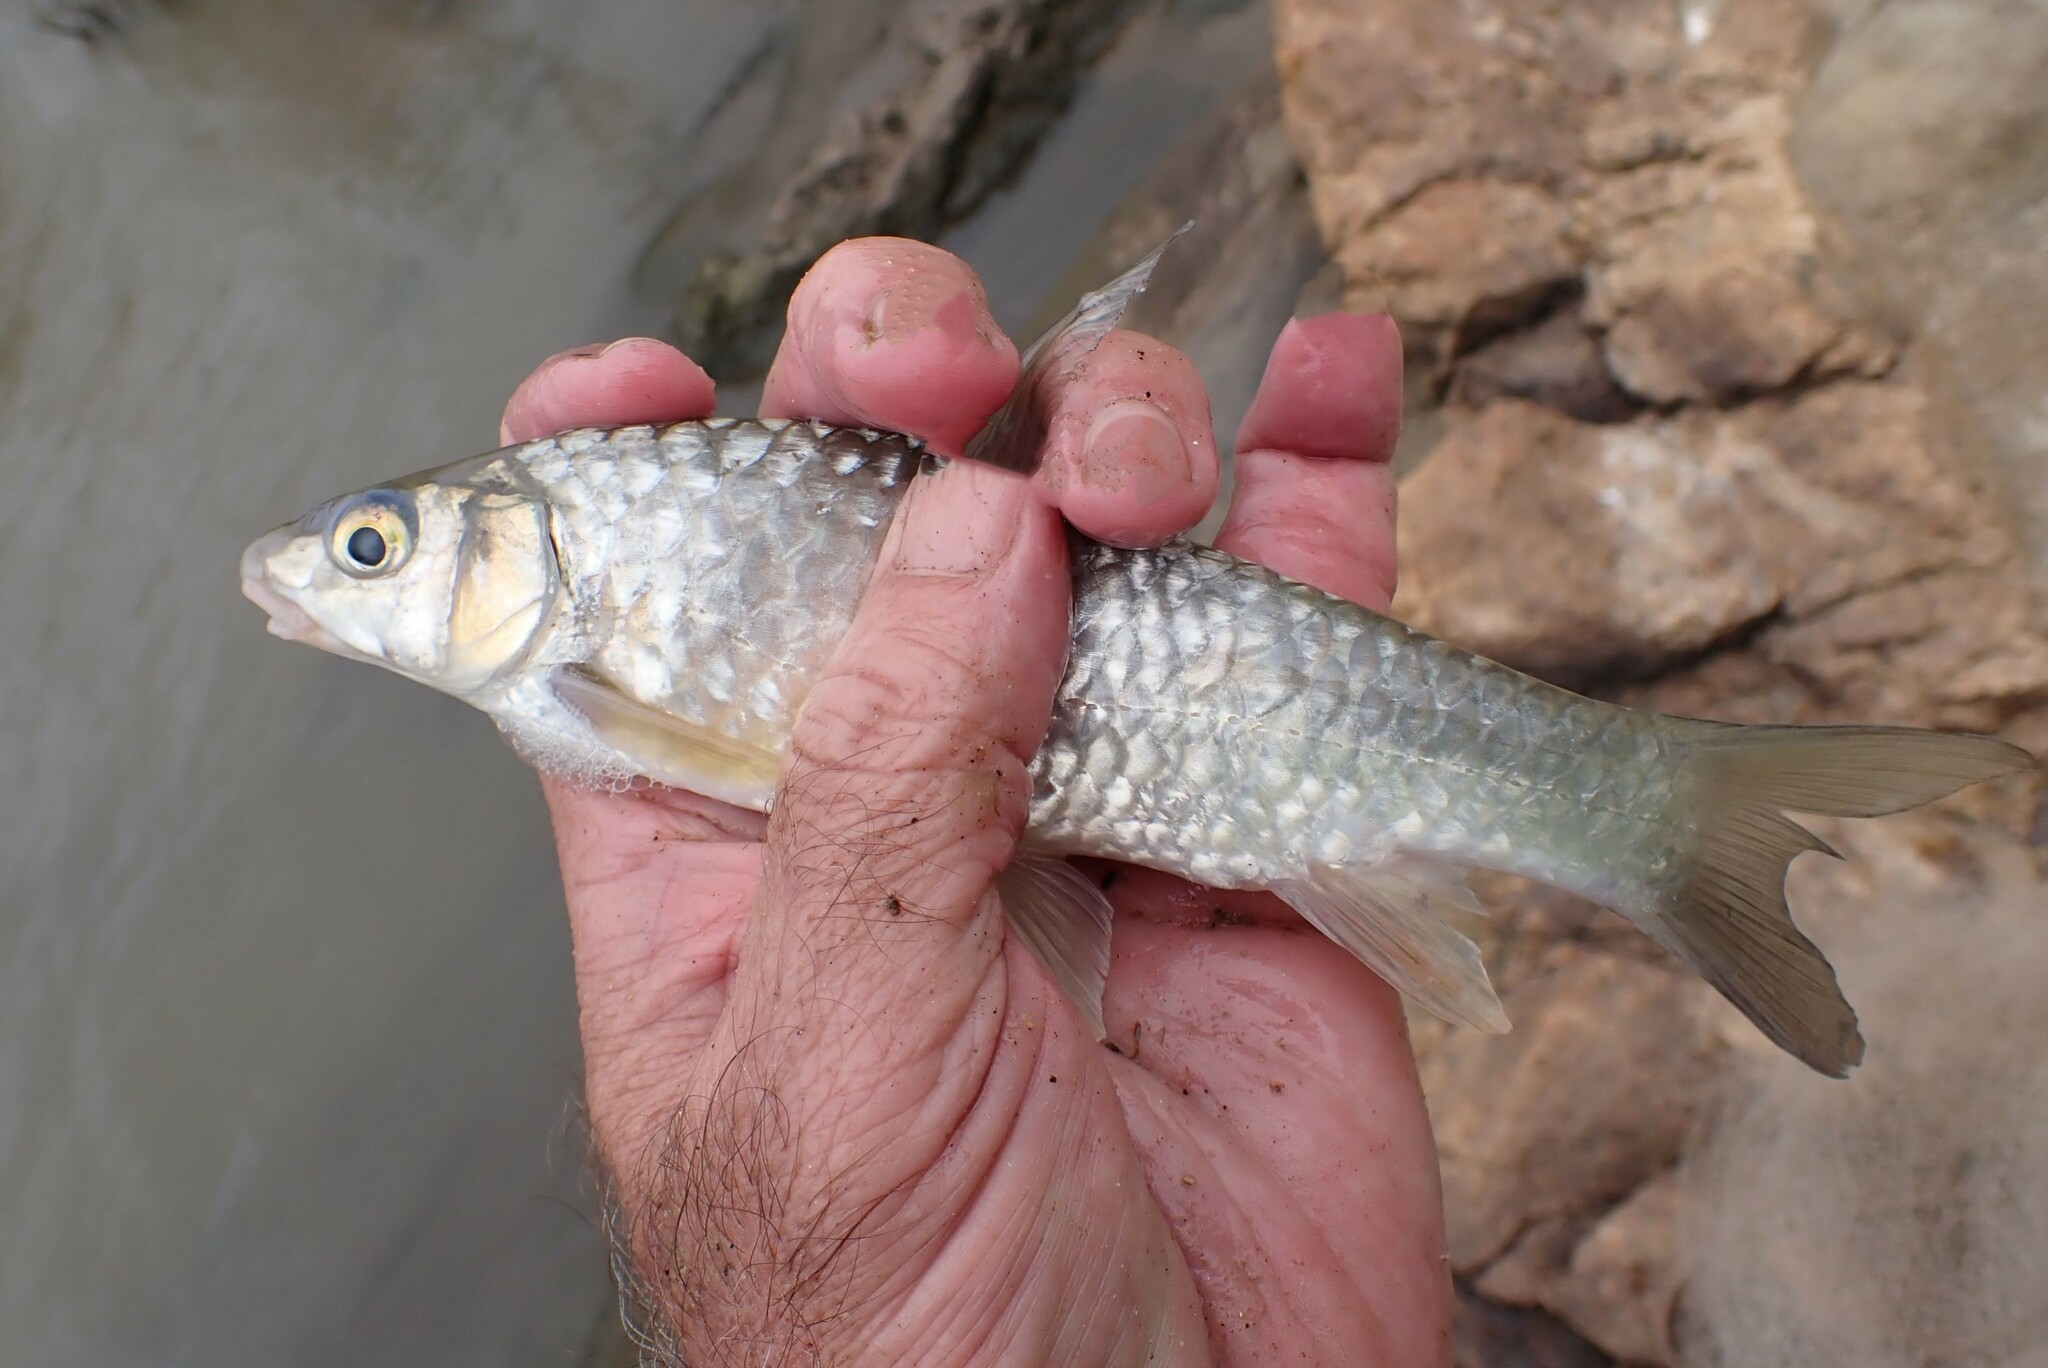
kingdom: Animalia
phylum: Chordata
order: Cypriniformes
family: Cyprinidae
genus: Labeobarbus
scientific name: Labeobarbus marequensis
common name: Largescale yellowfish
